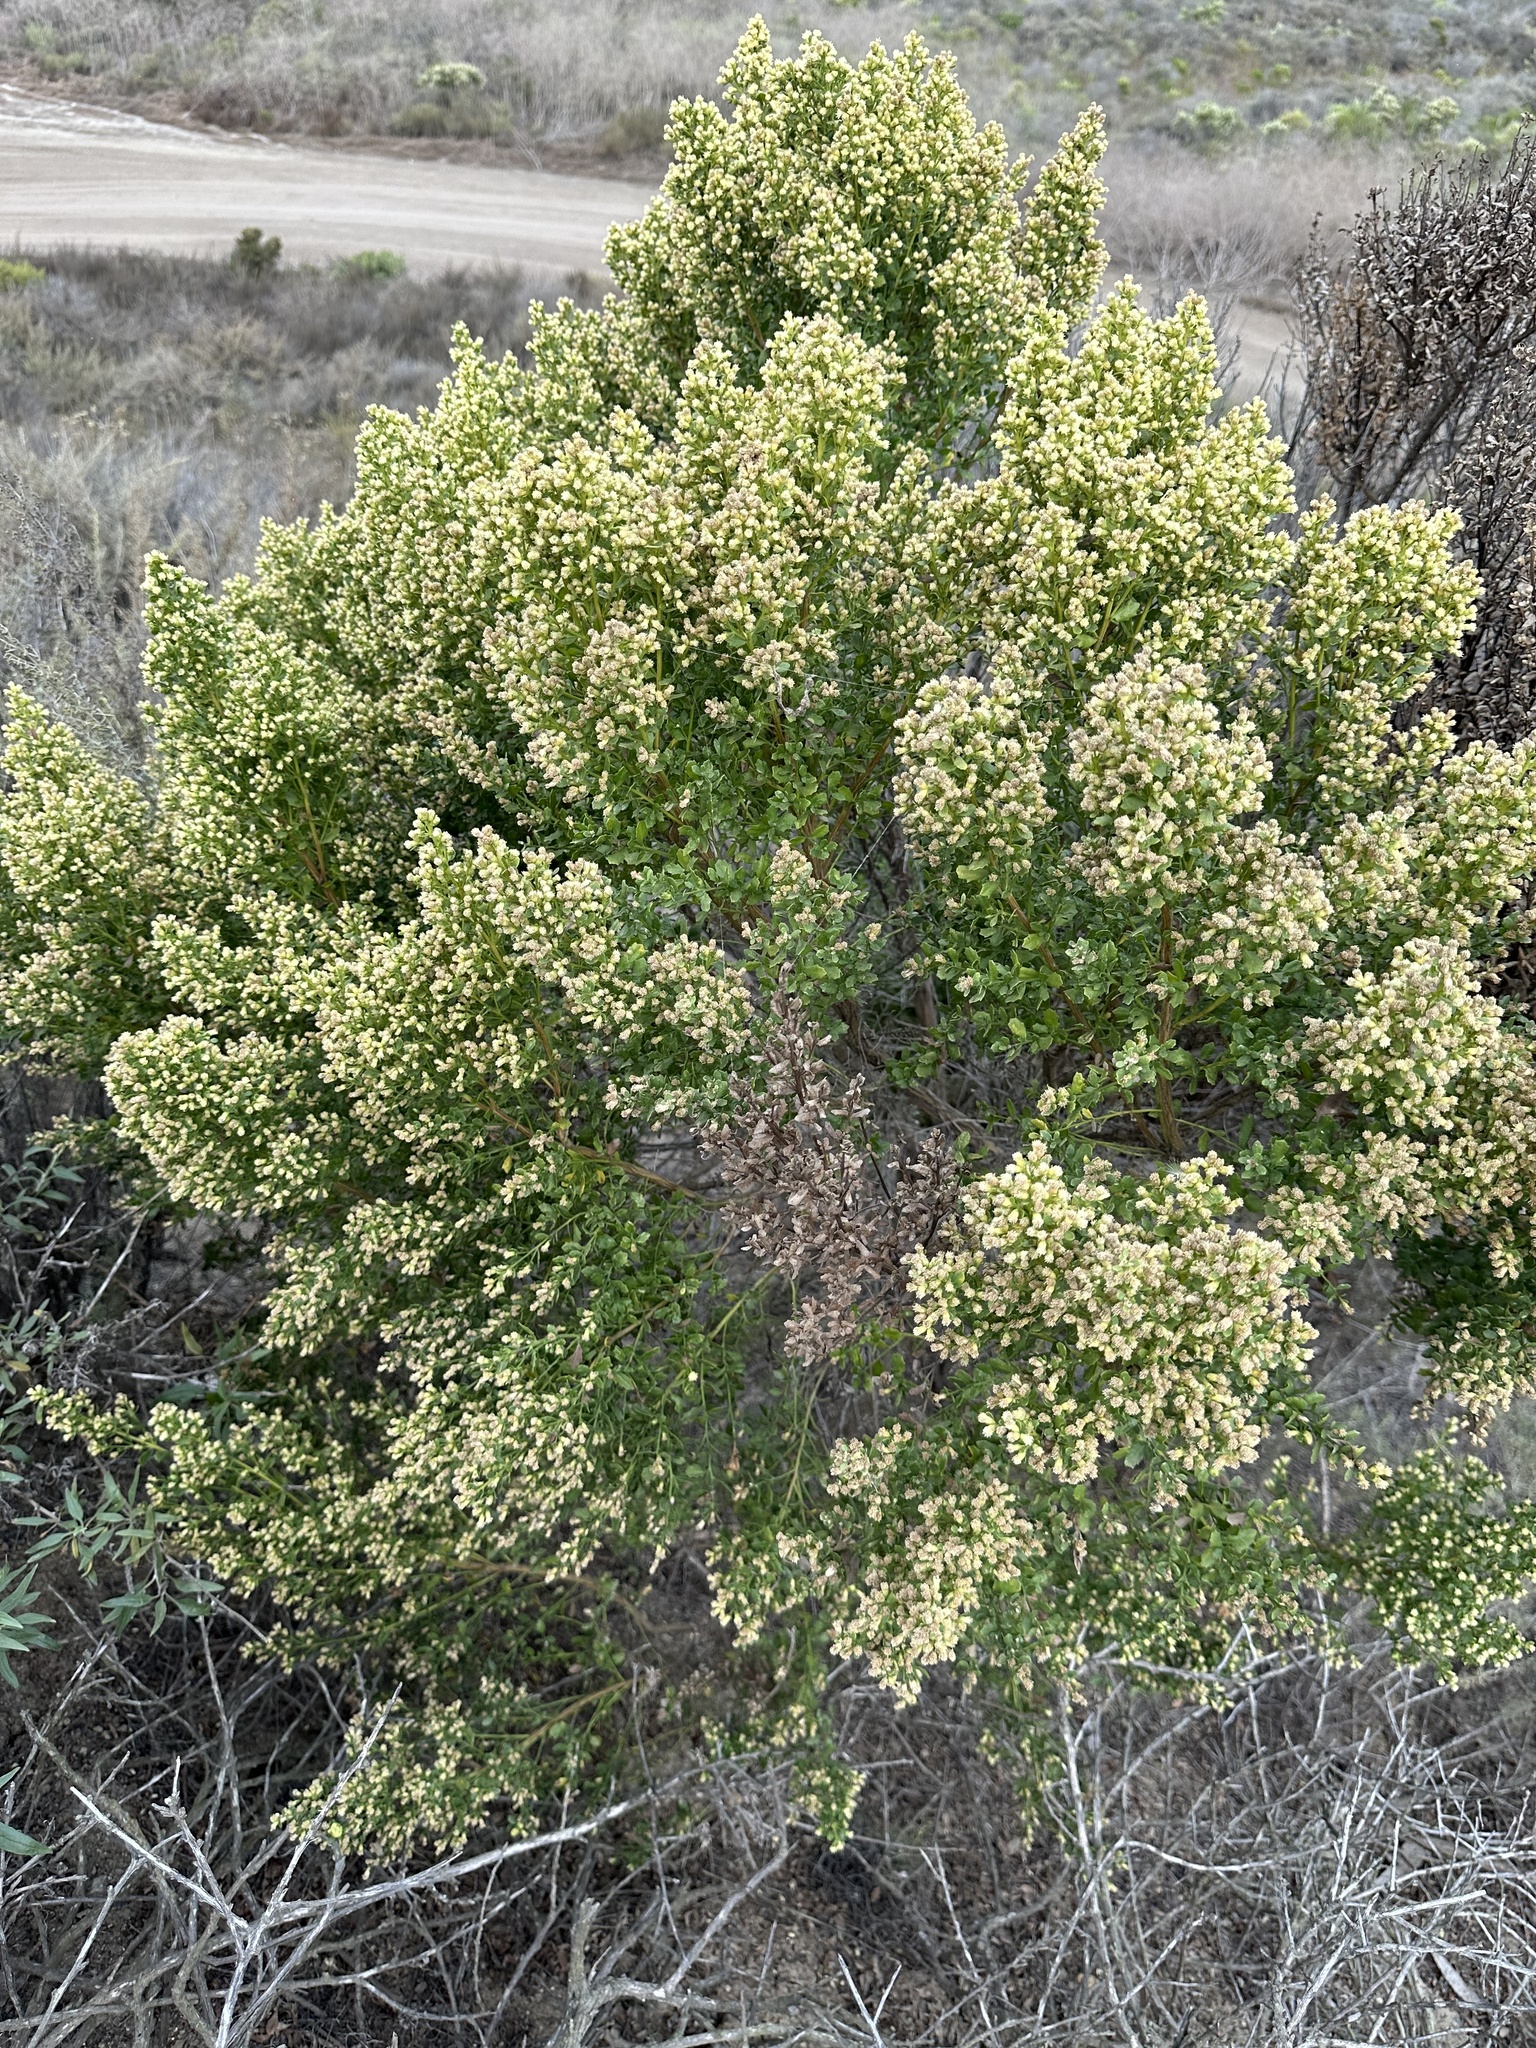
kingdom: Plantae
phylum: Tracheophyta
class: Magnoliopsida
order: Asterales
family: Asteraceae
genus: Baccharis
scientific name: Baccharis pilularis
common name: Coyotebrush
